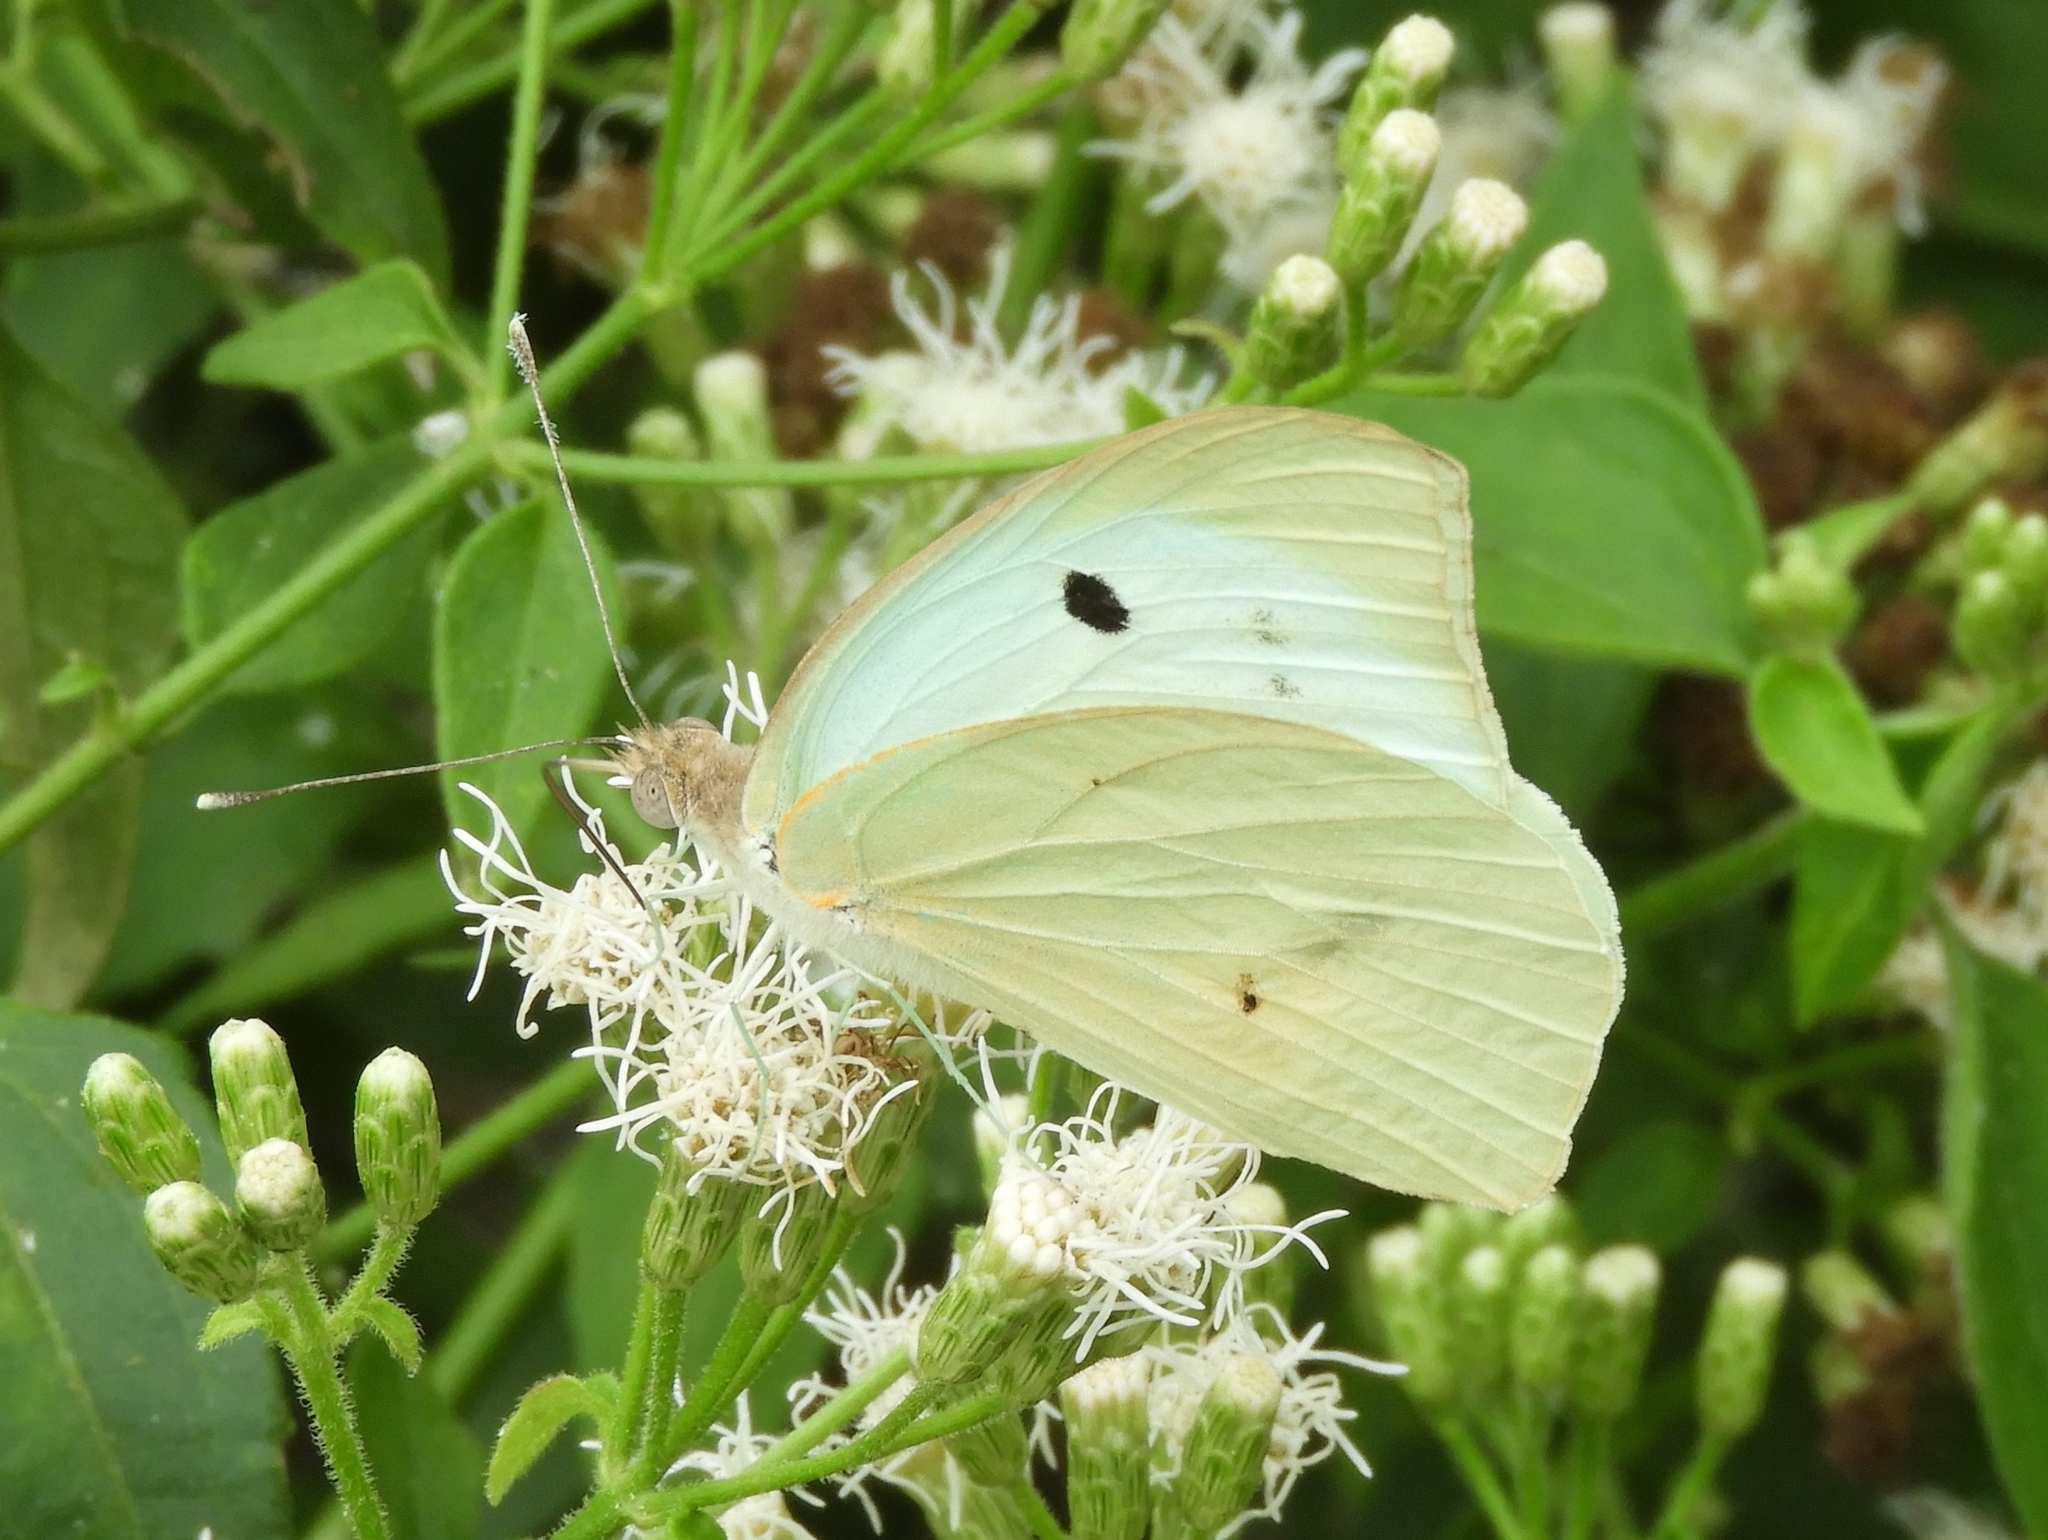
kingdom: Animalia
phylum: Arthropoda
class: Insecta
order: Lepidoptera
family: Pieridae
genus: Ganyra
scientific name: Ganyra josephina
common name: Giant white
